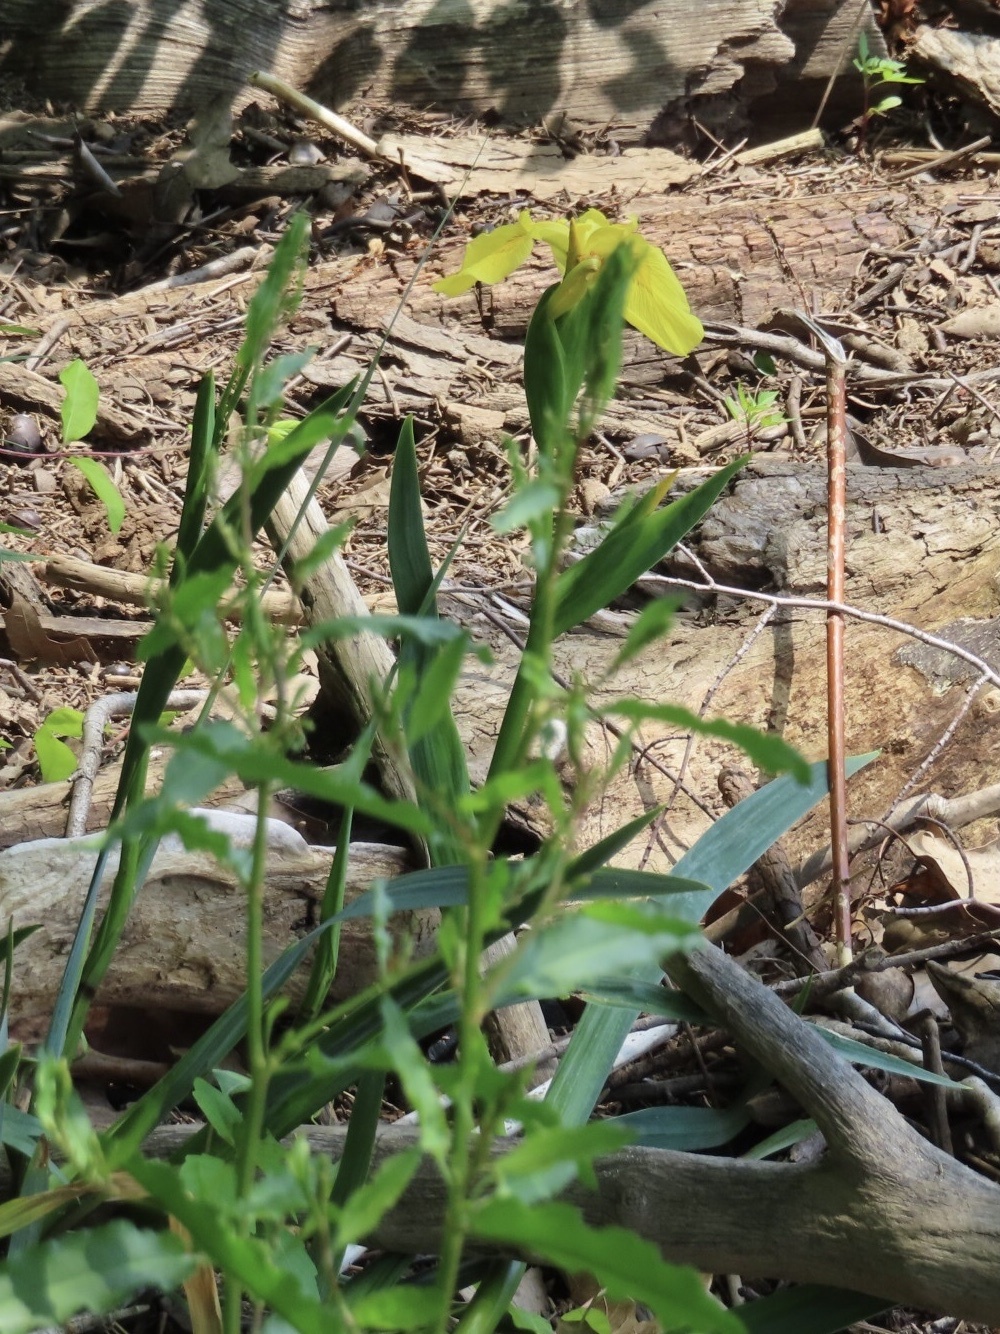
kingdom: Plantae
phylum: Tracheophyta
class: Liliopsida
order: Asparagales
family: Iridaceae
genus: Iris
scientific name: Iris pseudacorus
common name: Yellow flag
